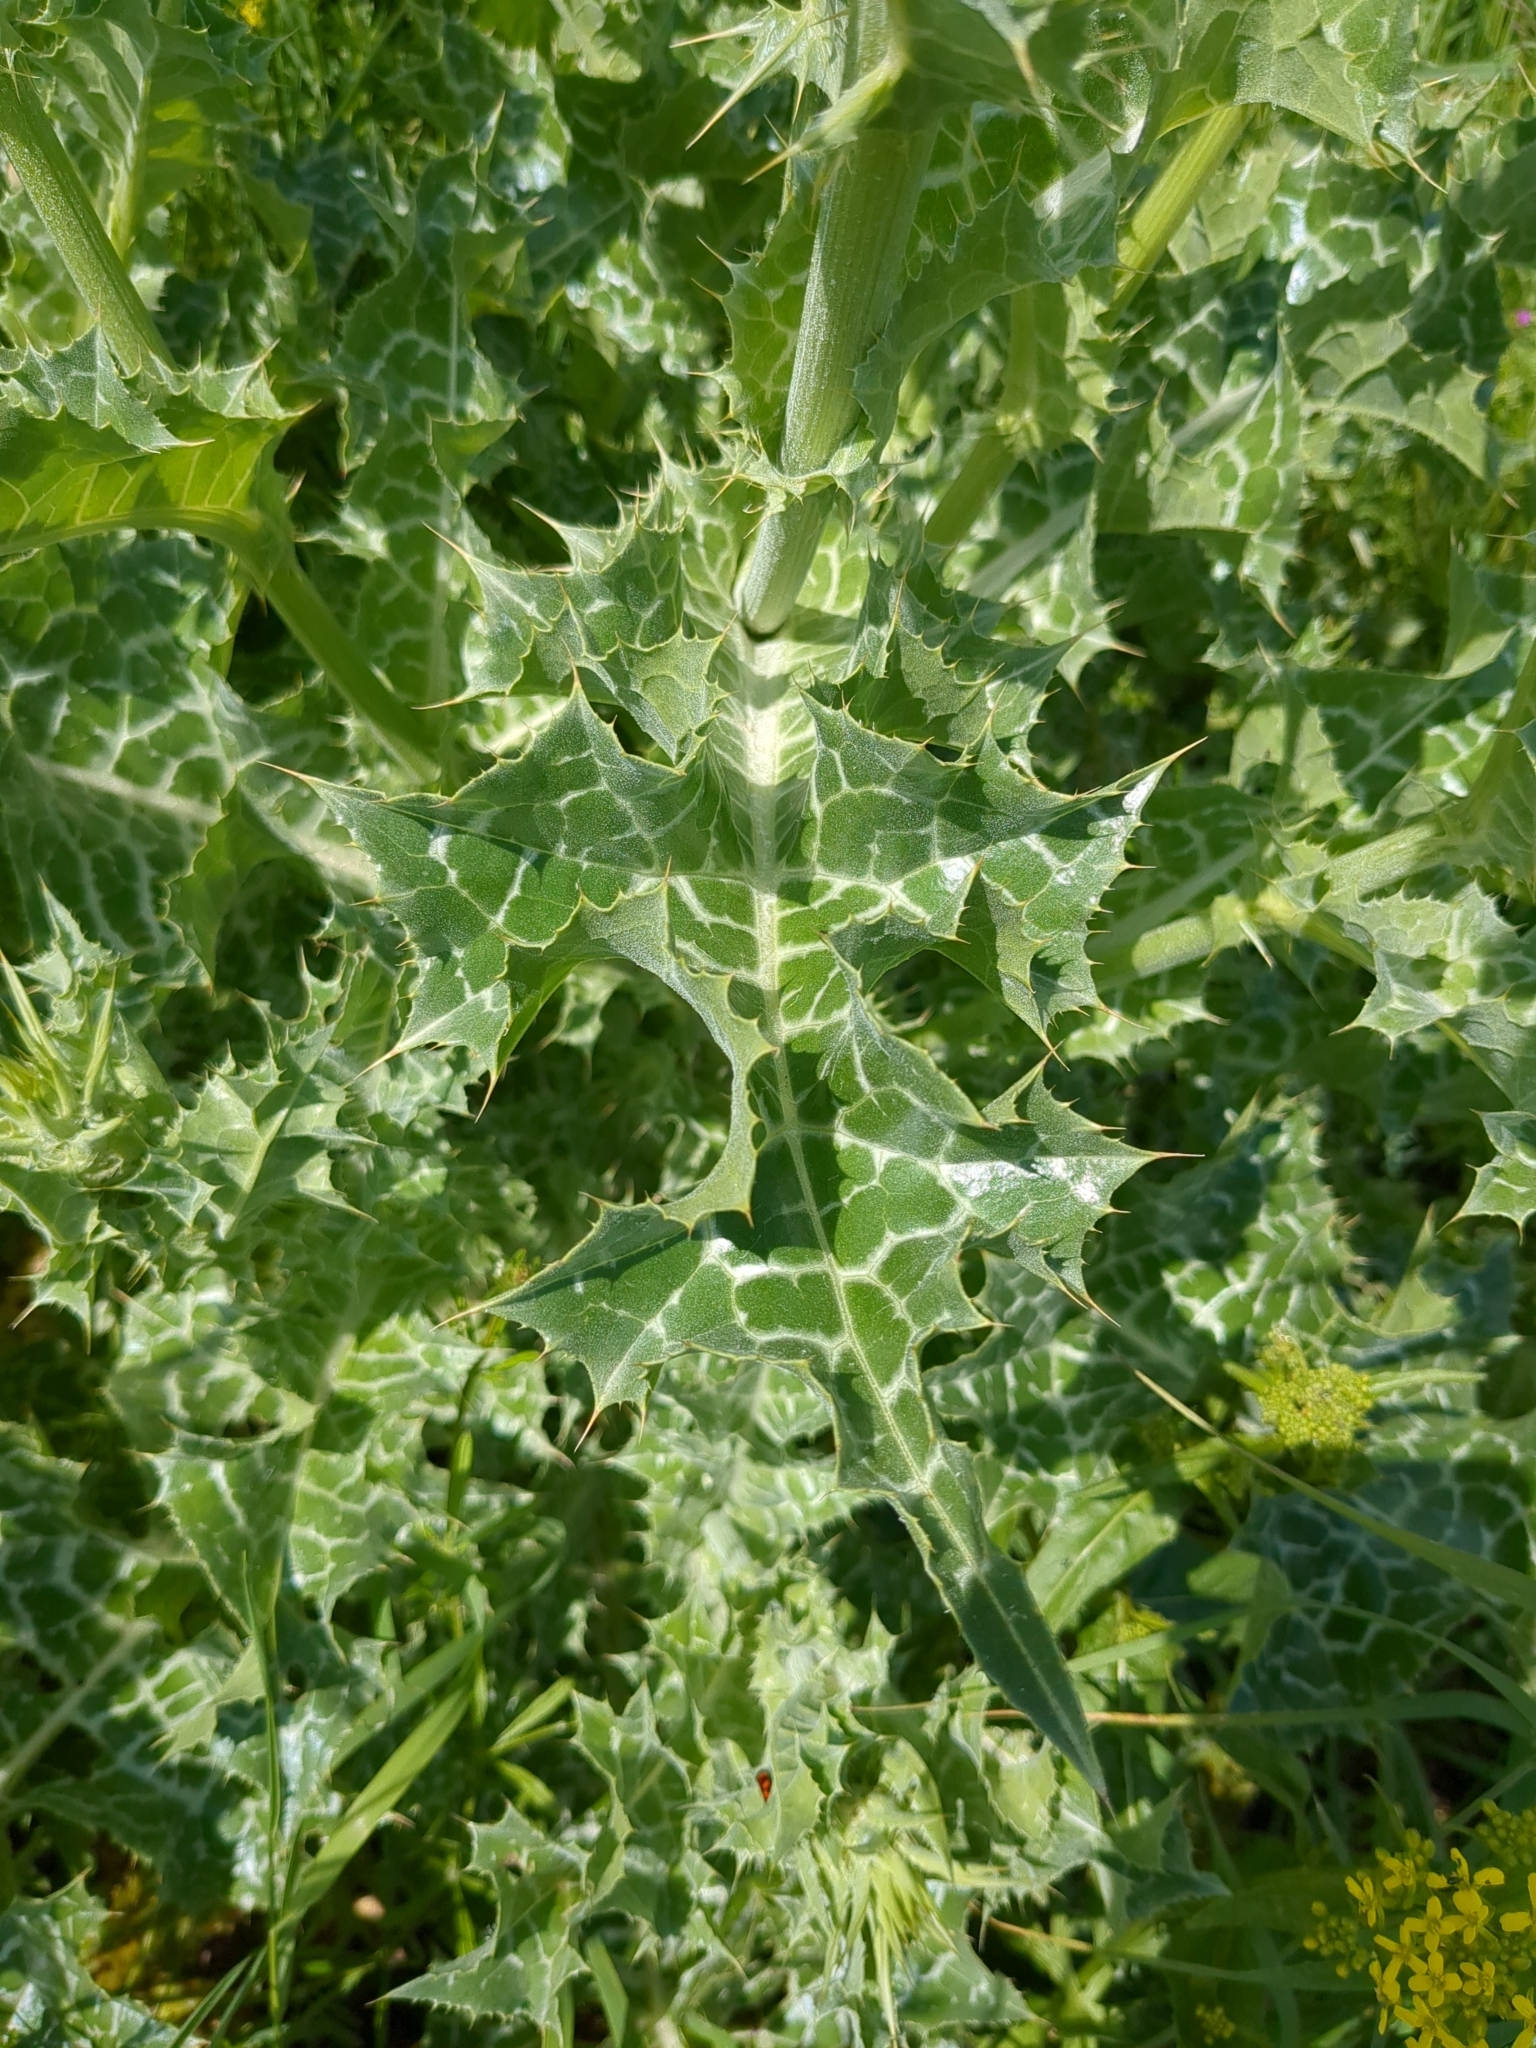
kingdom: Plantae
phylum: Tracheophyta
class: Magnoliopsida
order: Asterales
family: Asteraceae
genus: Silybum
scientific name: Silybum marianum
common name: Milk thistle
